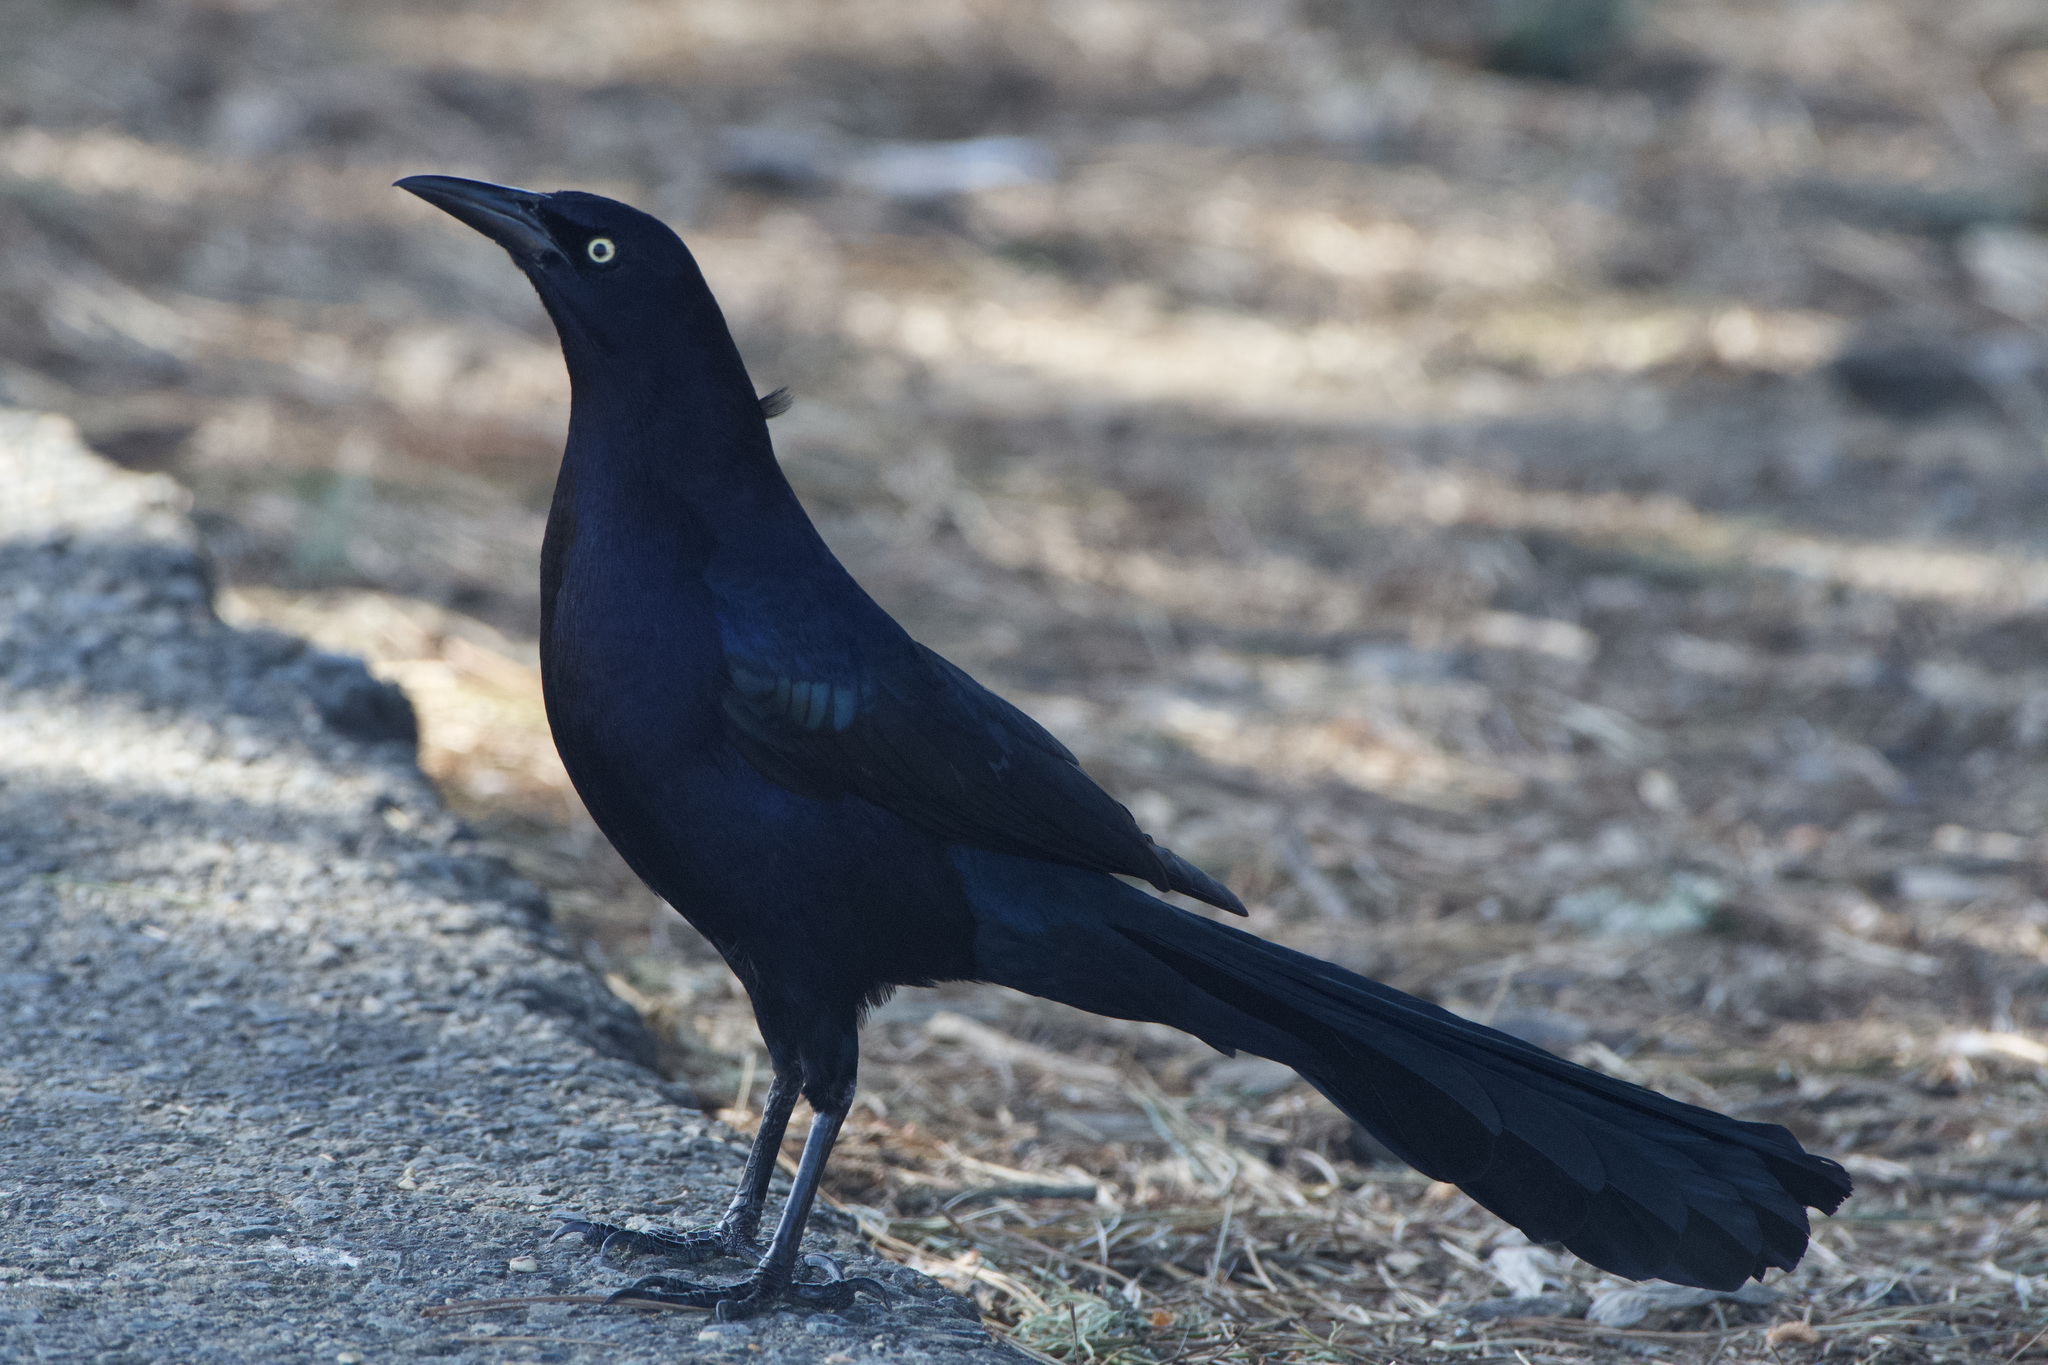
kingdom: Animalia
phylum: Chordata
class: Aves
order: Passeriformes
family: Icteridae
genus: Quiscalus
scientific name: Quiscalus mexicanus
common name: Great-tailed grackle
